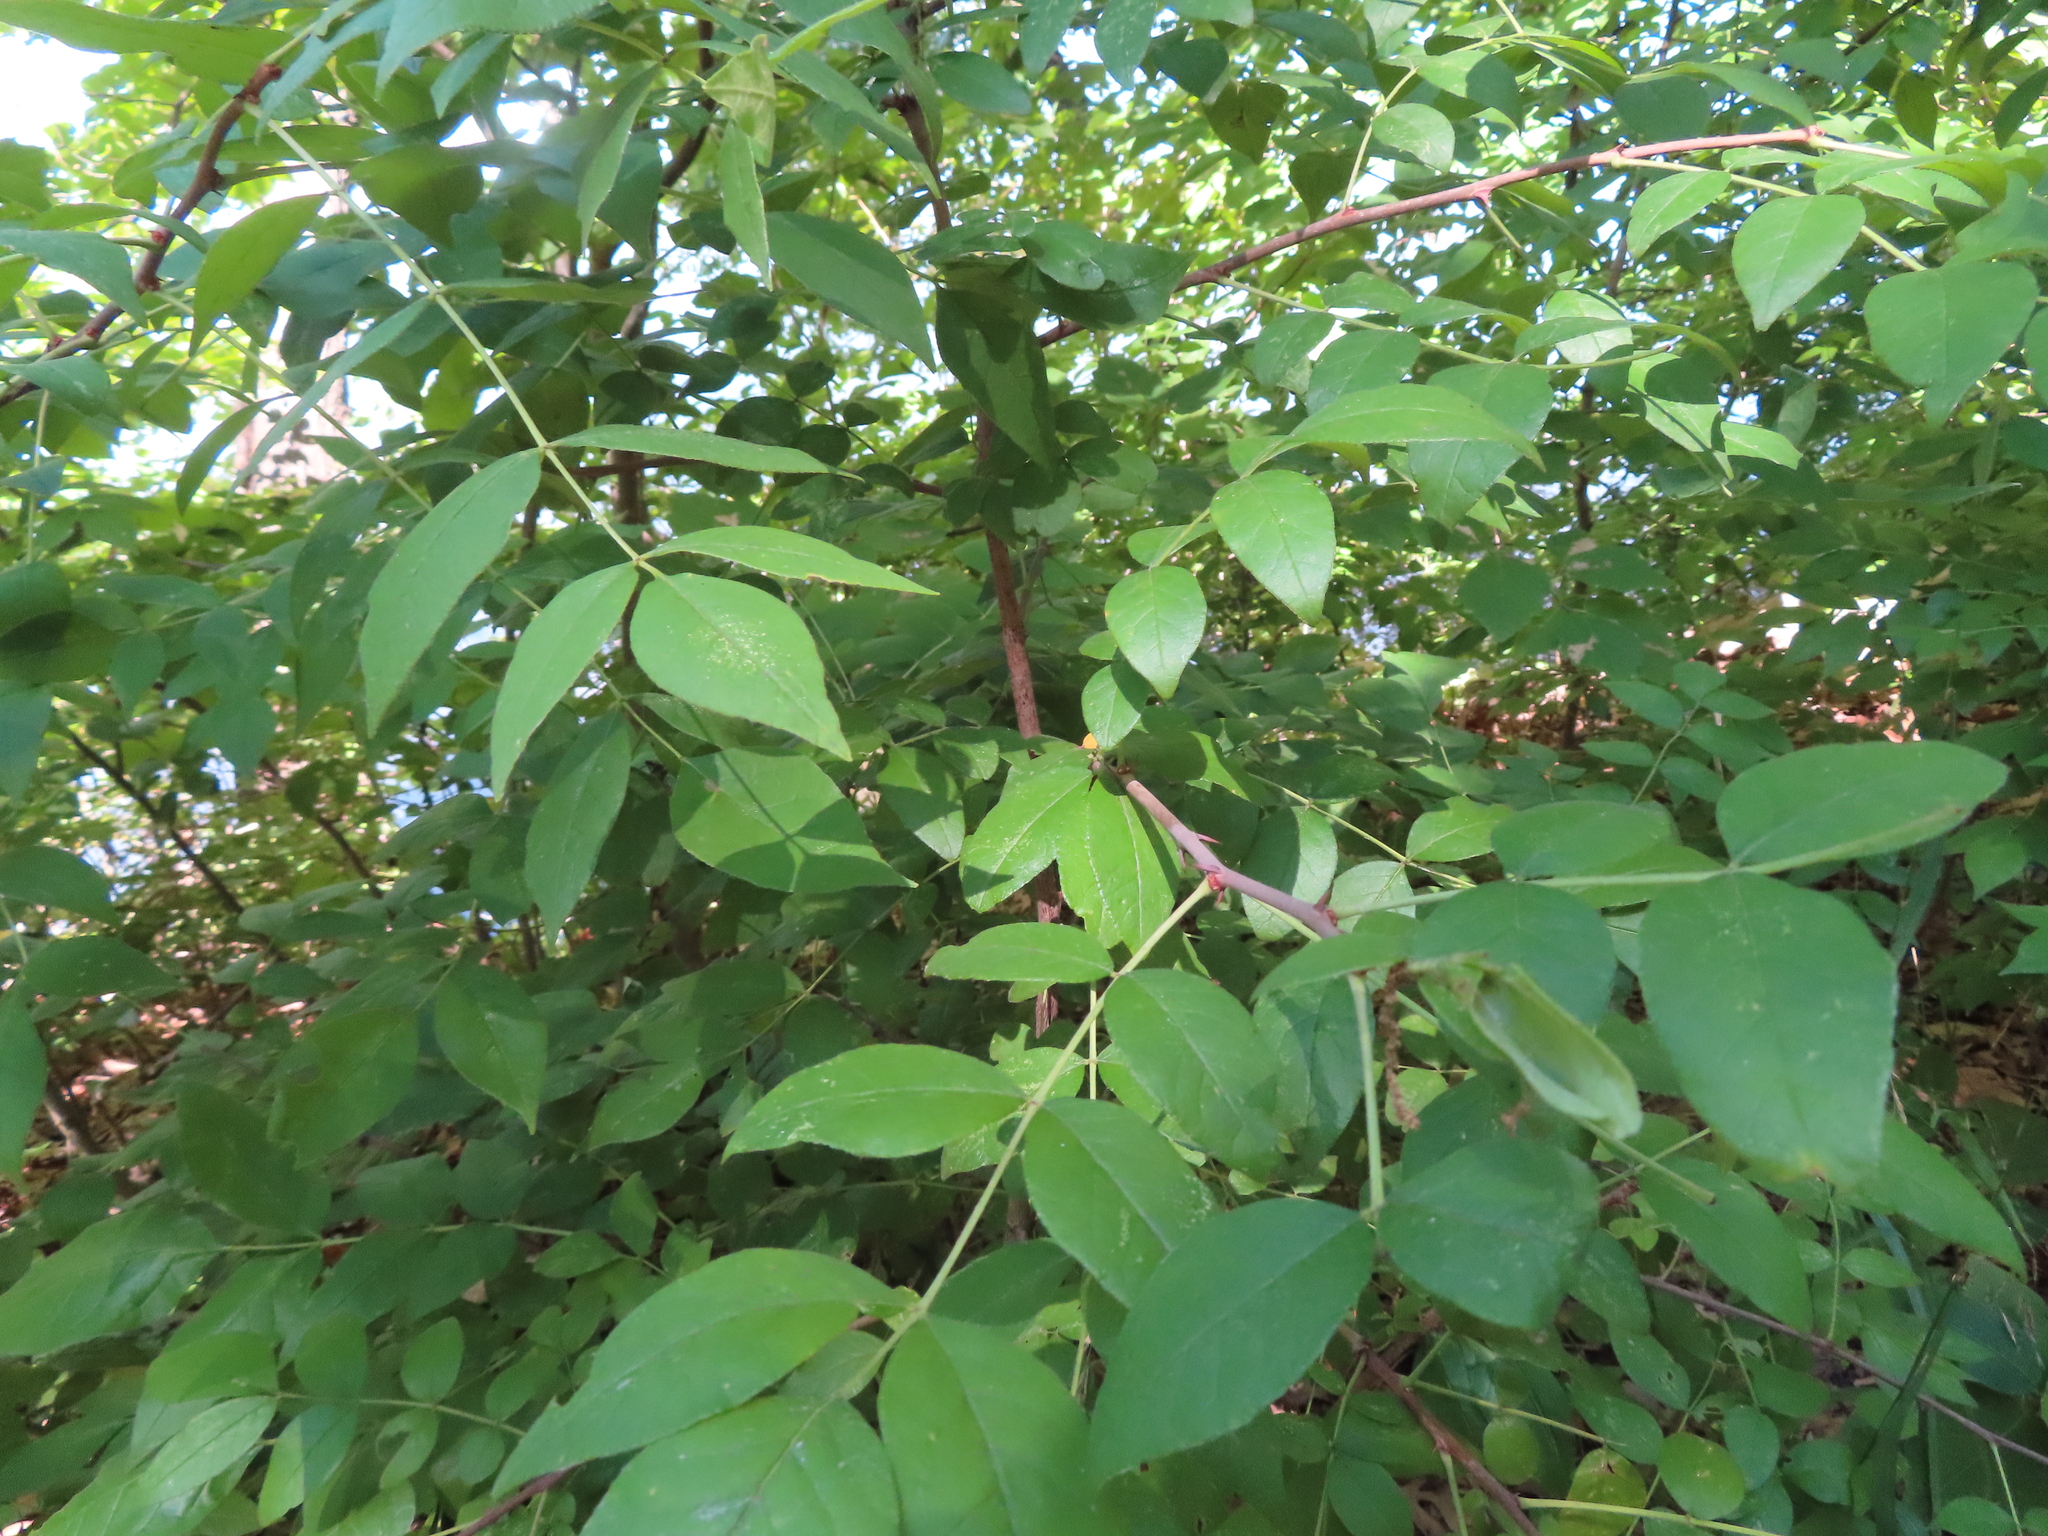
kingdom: Plantae
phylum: Tracheophyta
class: Magnoliopsida
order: Sapindales
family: Rutaceae
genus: Zanthoxylum
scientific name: Zanthoxylum americanum
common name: Northern prickly-ash
